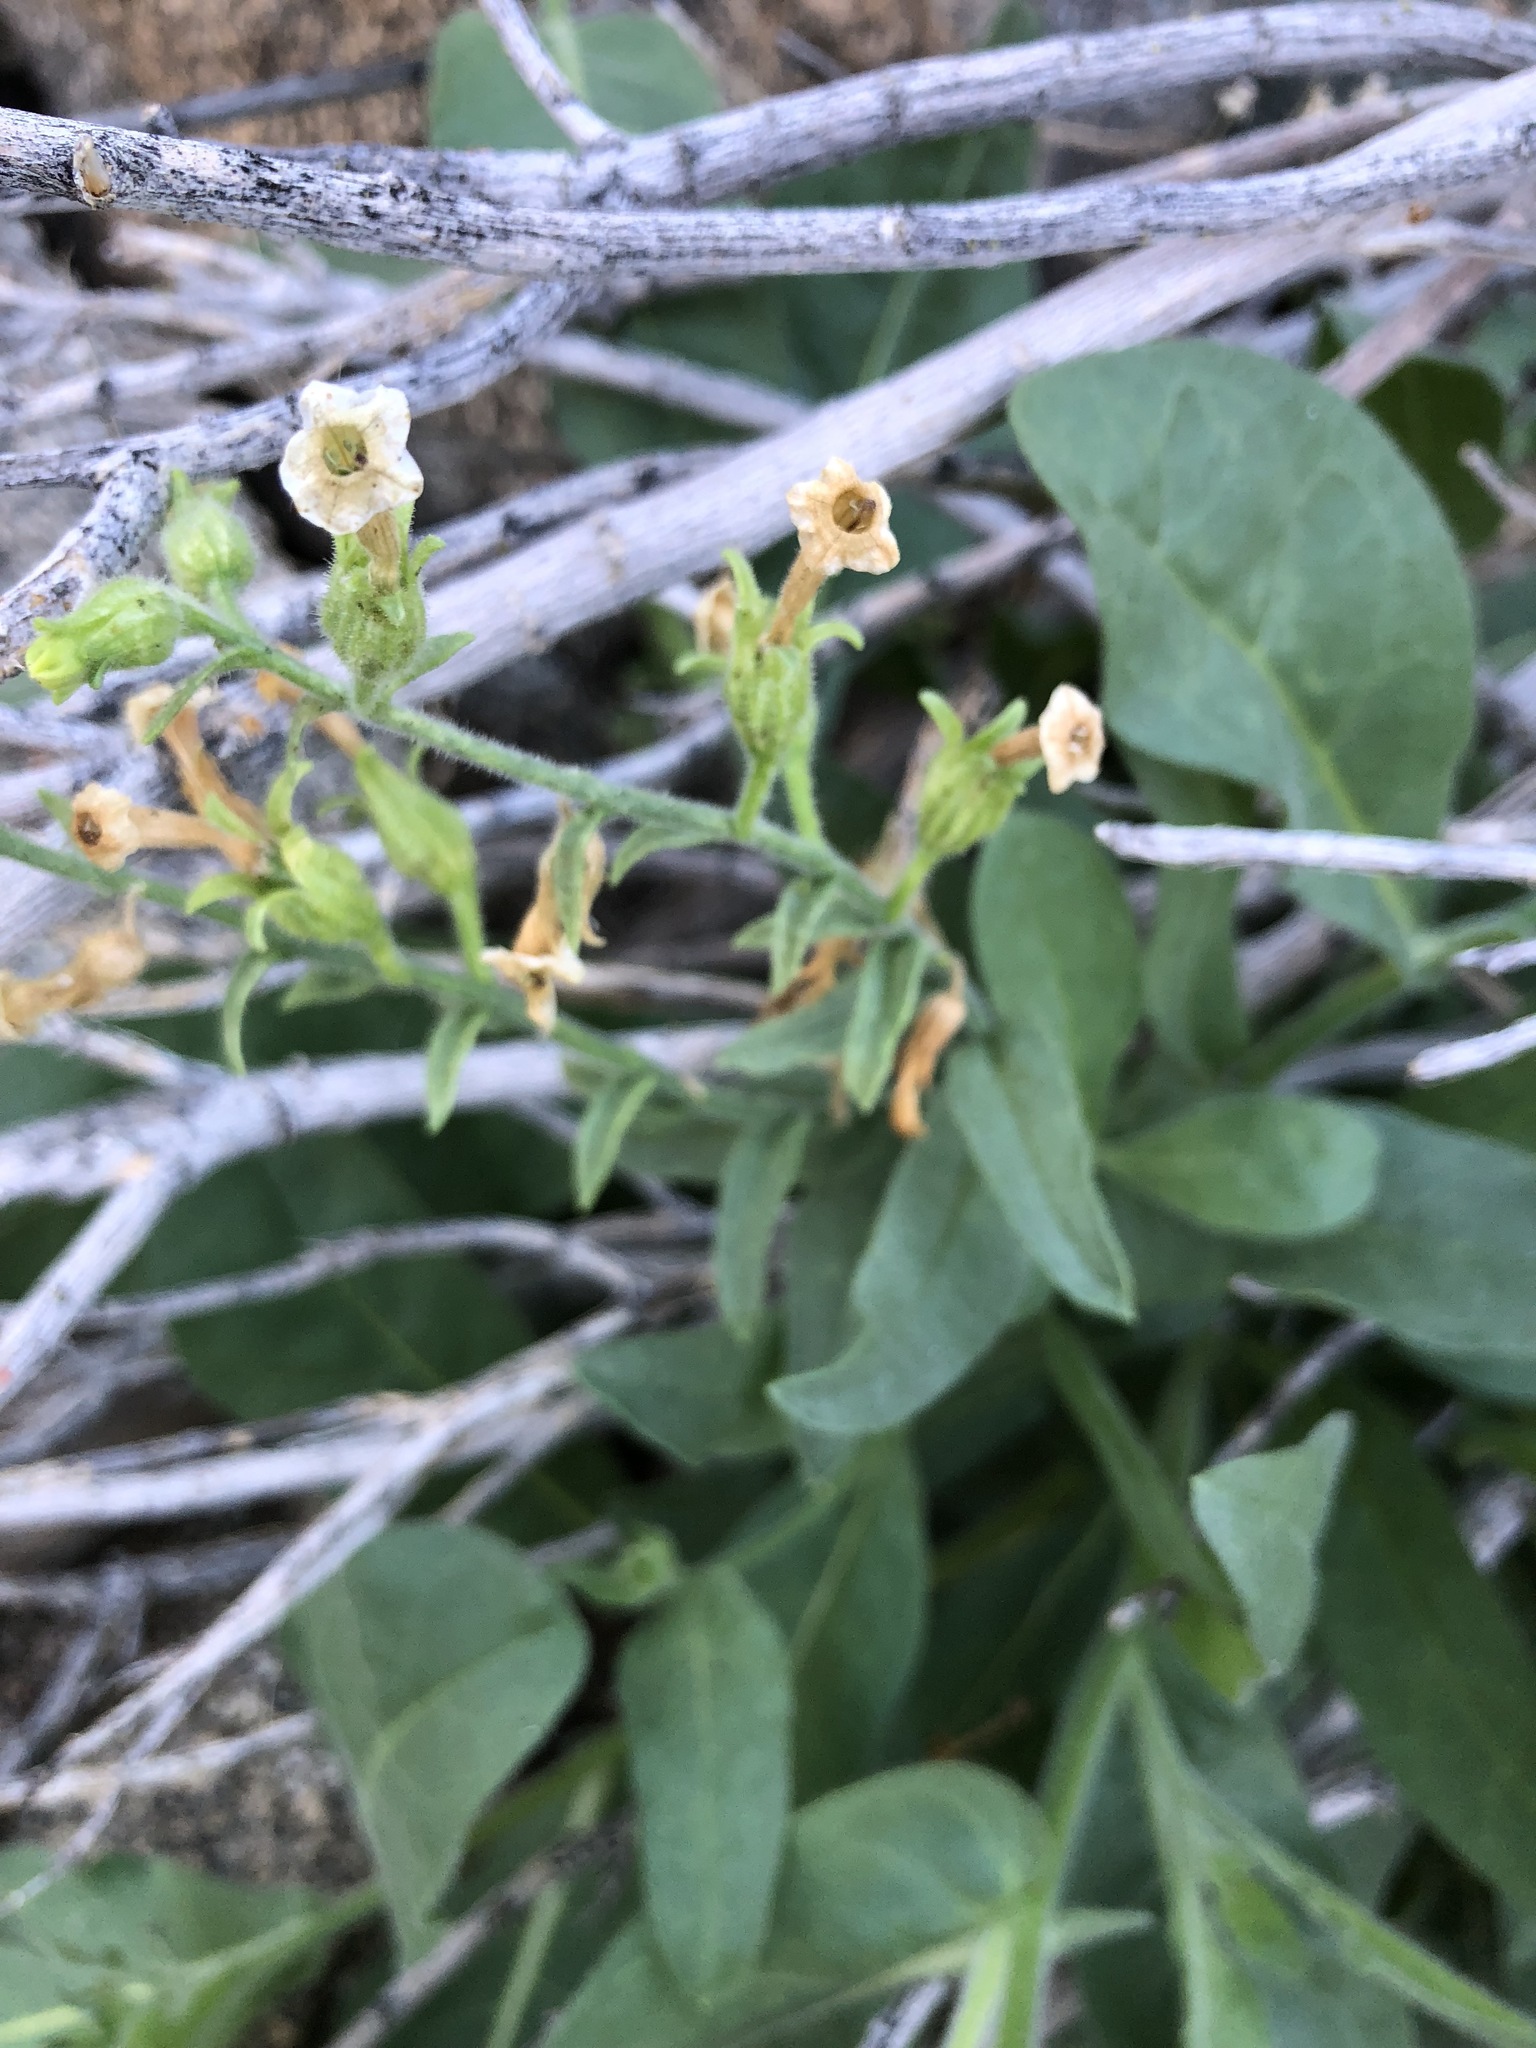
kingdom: Plantae
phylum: Tracheophyta
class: Magnoliopsida
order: Solanales
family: Solanaceae
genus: Nicotiana
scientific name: Nicotiana obtusifolia
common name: Desert tobacco
